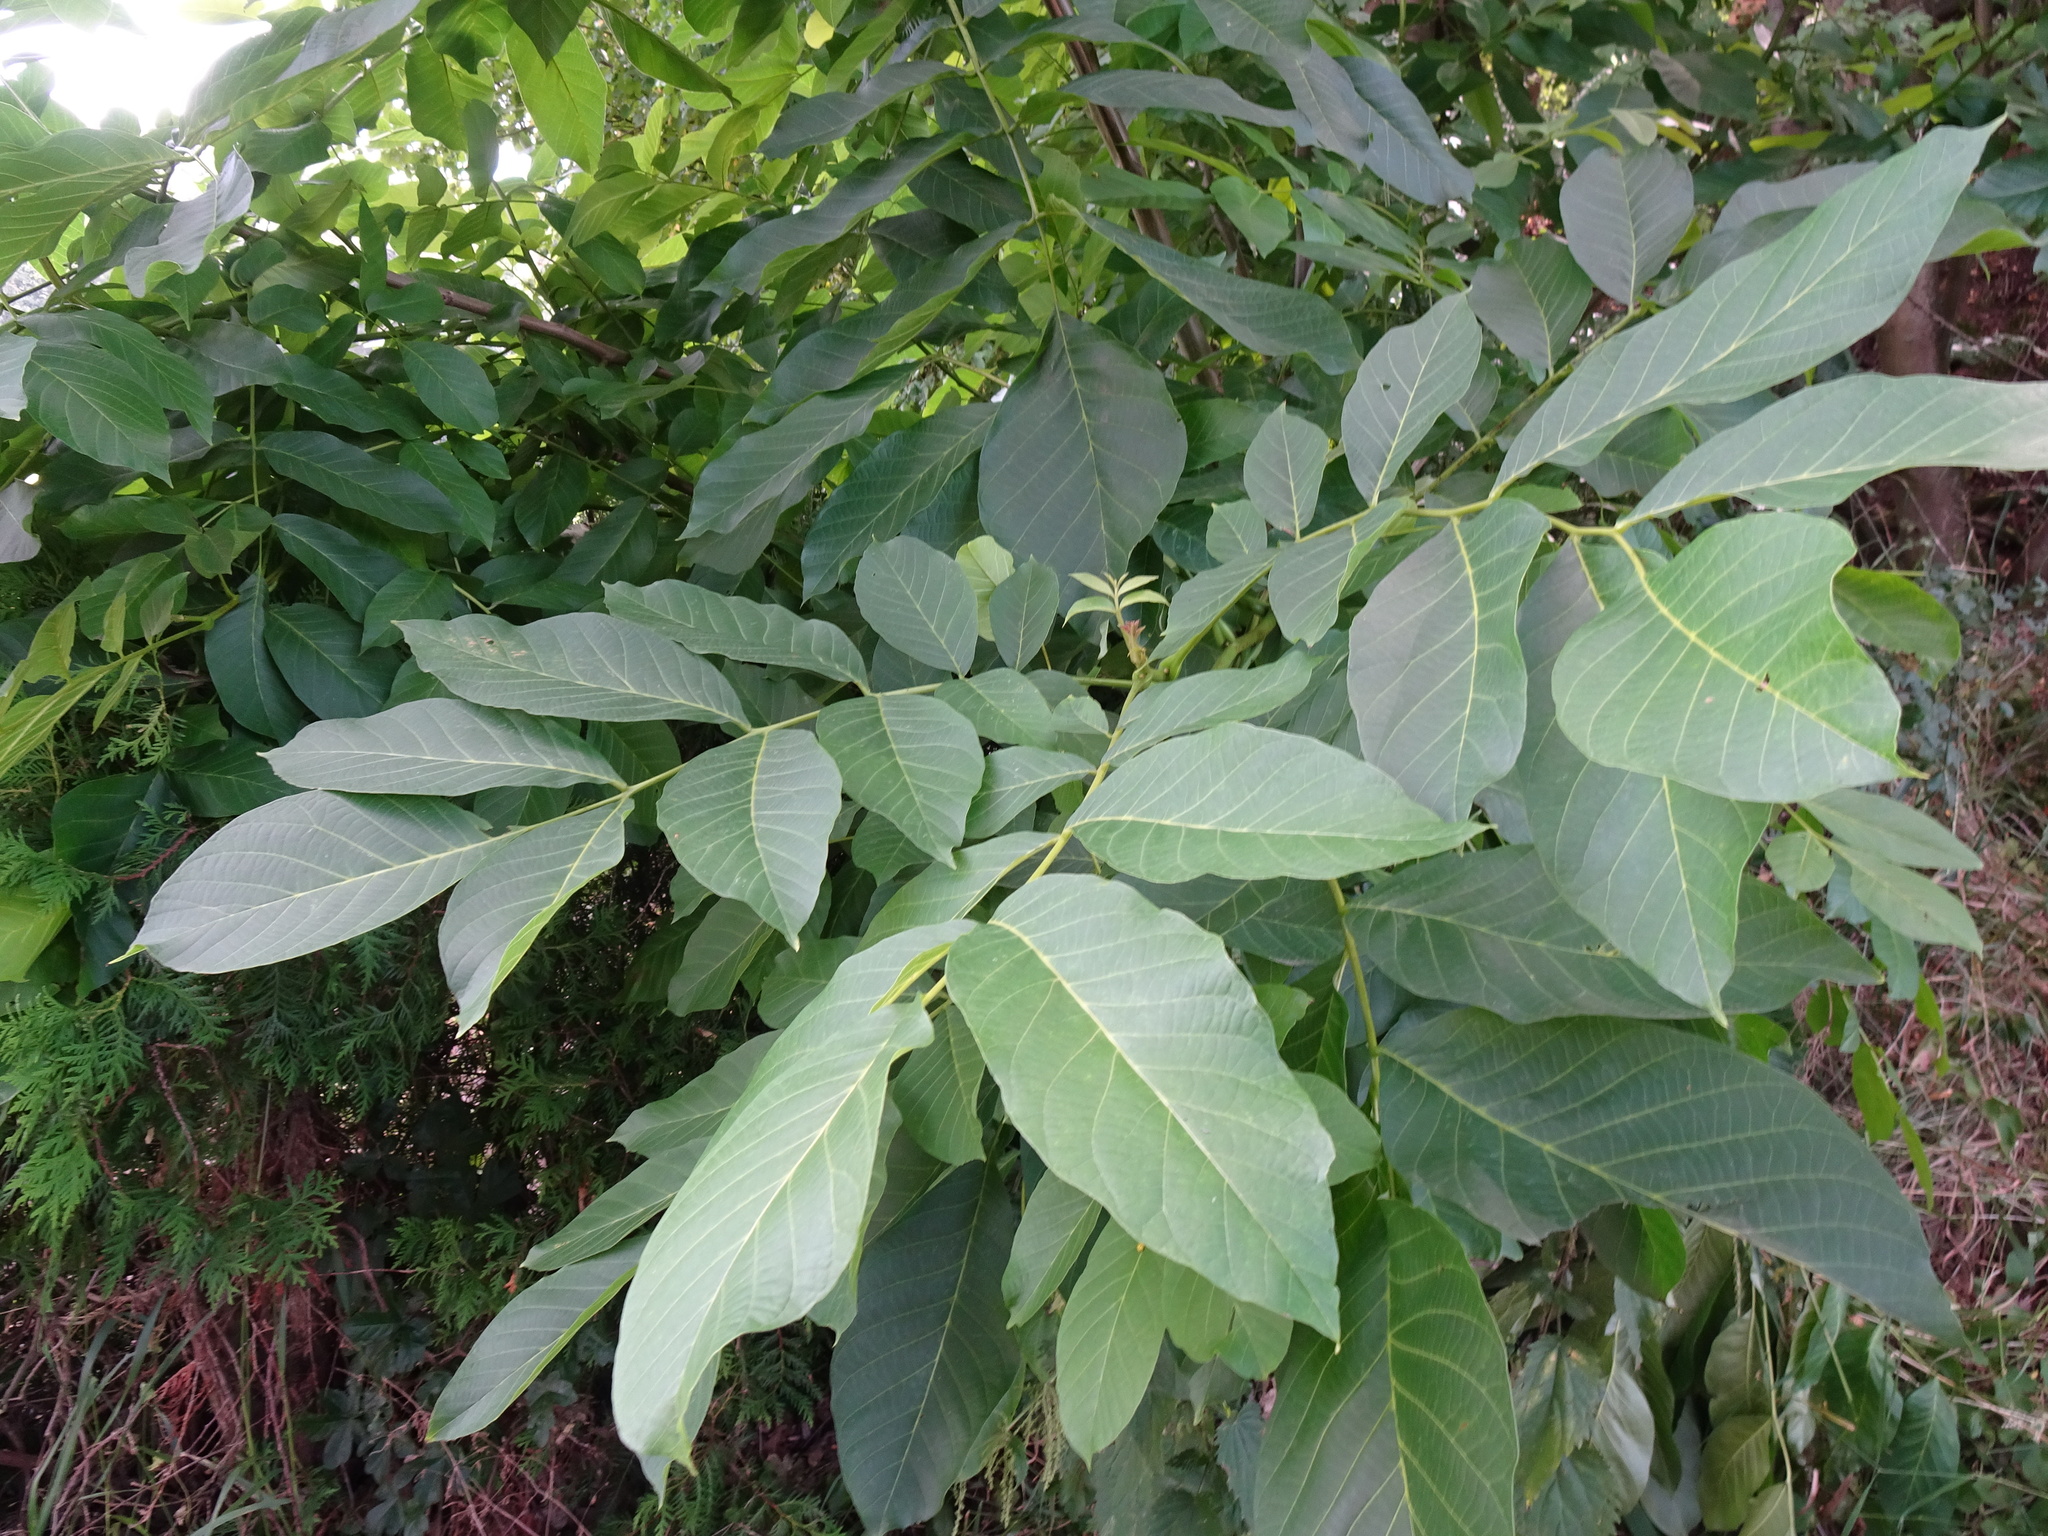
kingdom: Plantae
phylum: Tracheophyta
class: Magnoliopsida
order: Fagales
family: Juglandaceae
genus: Juglans
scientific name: Juglans regia
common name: Walnut
